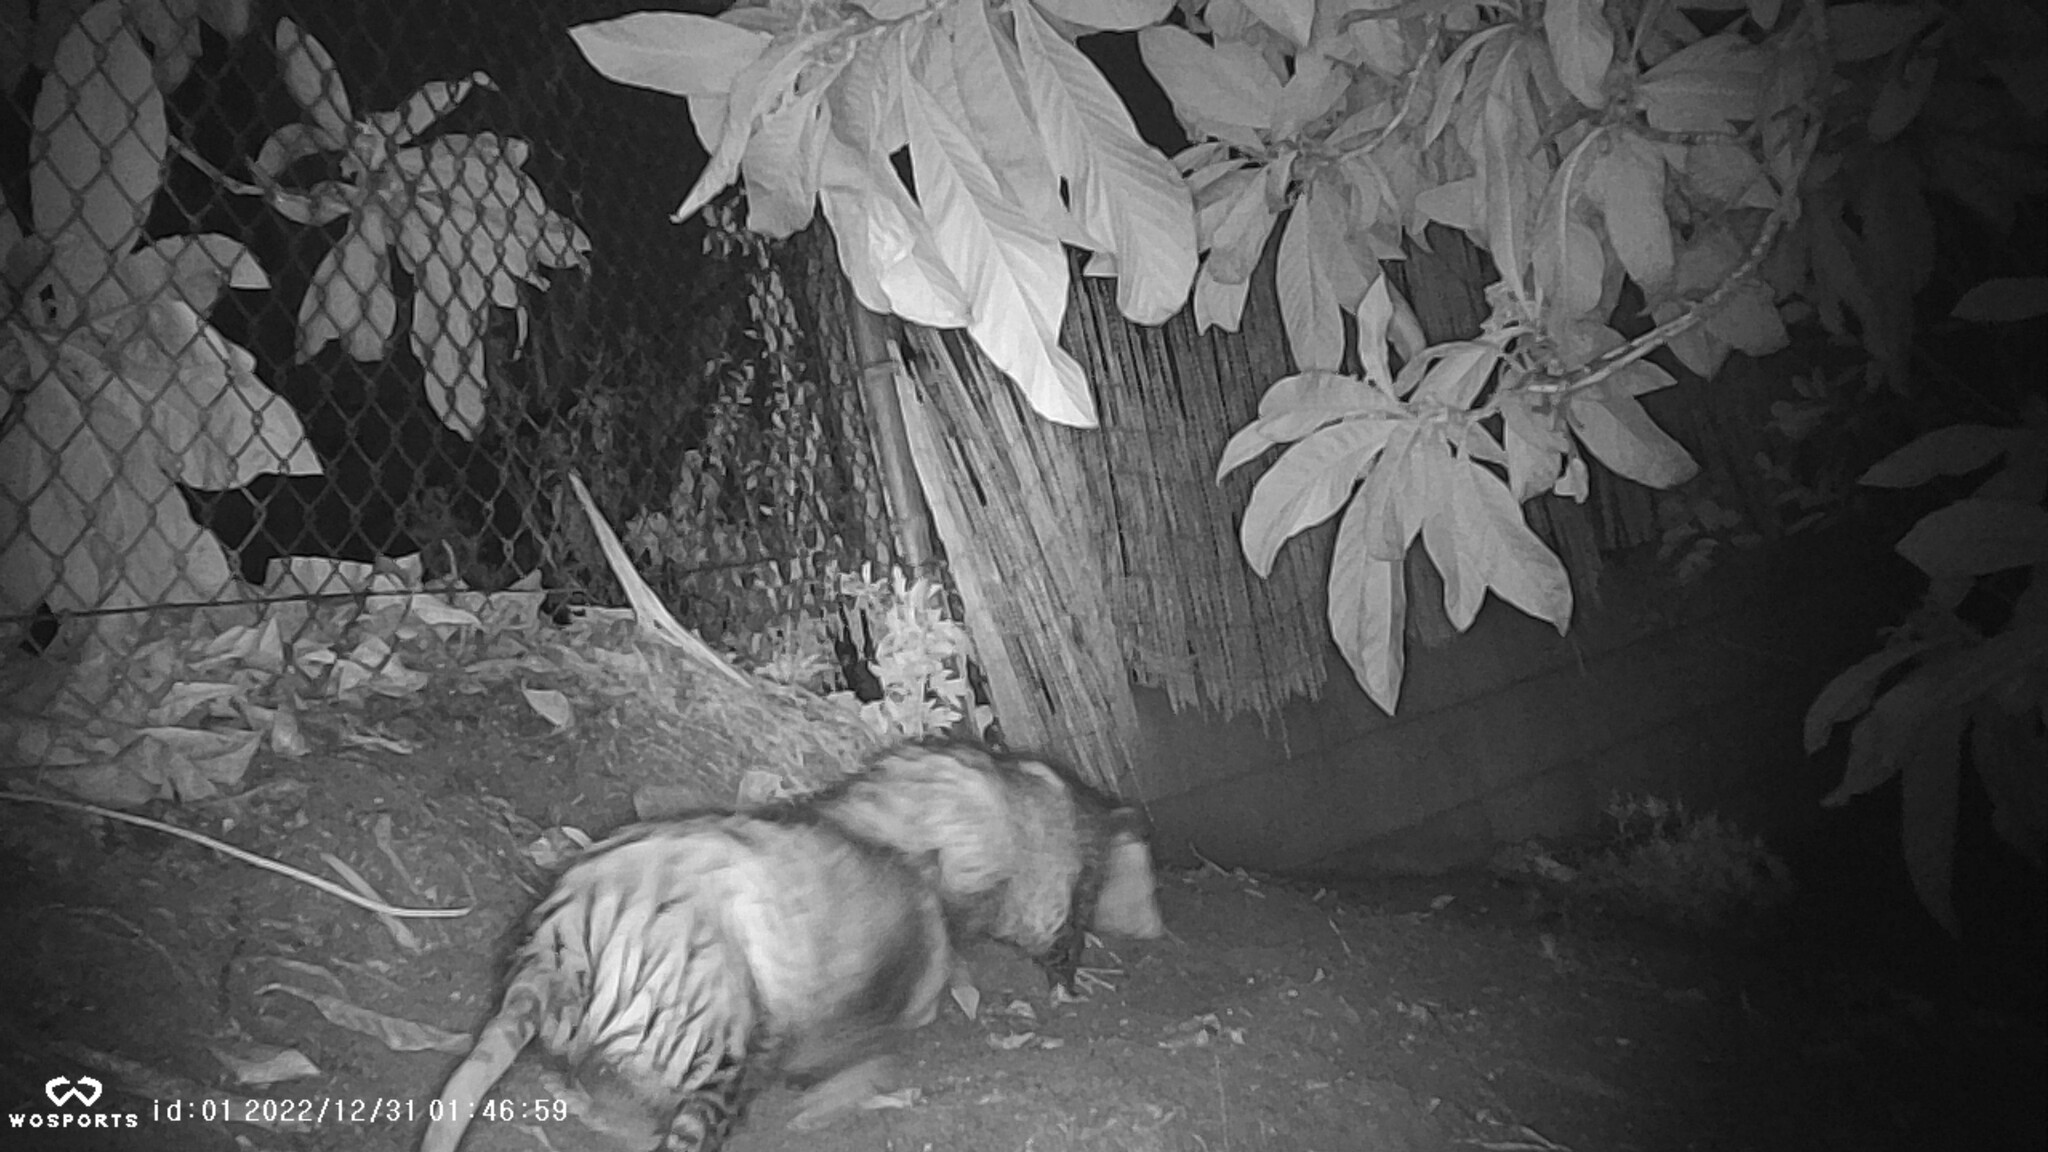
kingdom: Animalia
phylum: Chordata
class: Mammalia
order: Didelphimorphia
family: Didelphidae
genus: Didelphis
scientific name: Didelphis virginiana
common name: Virginia opossum
